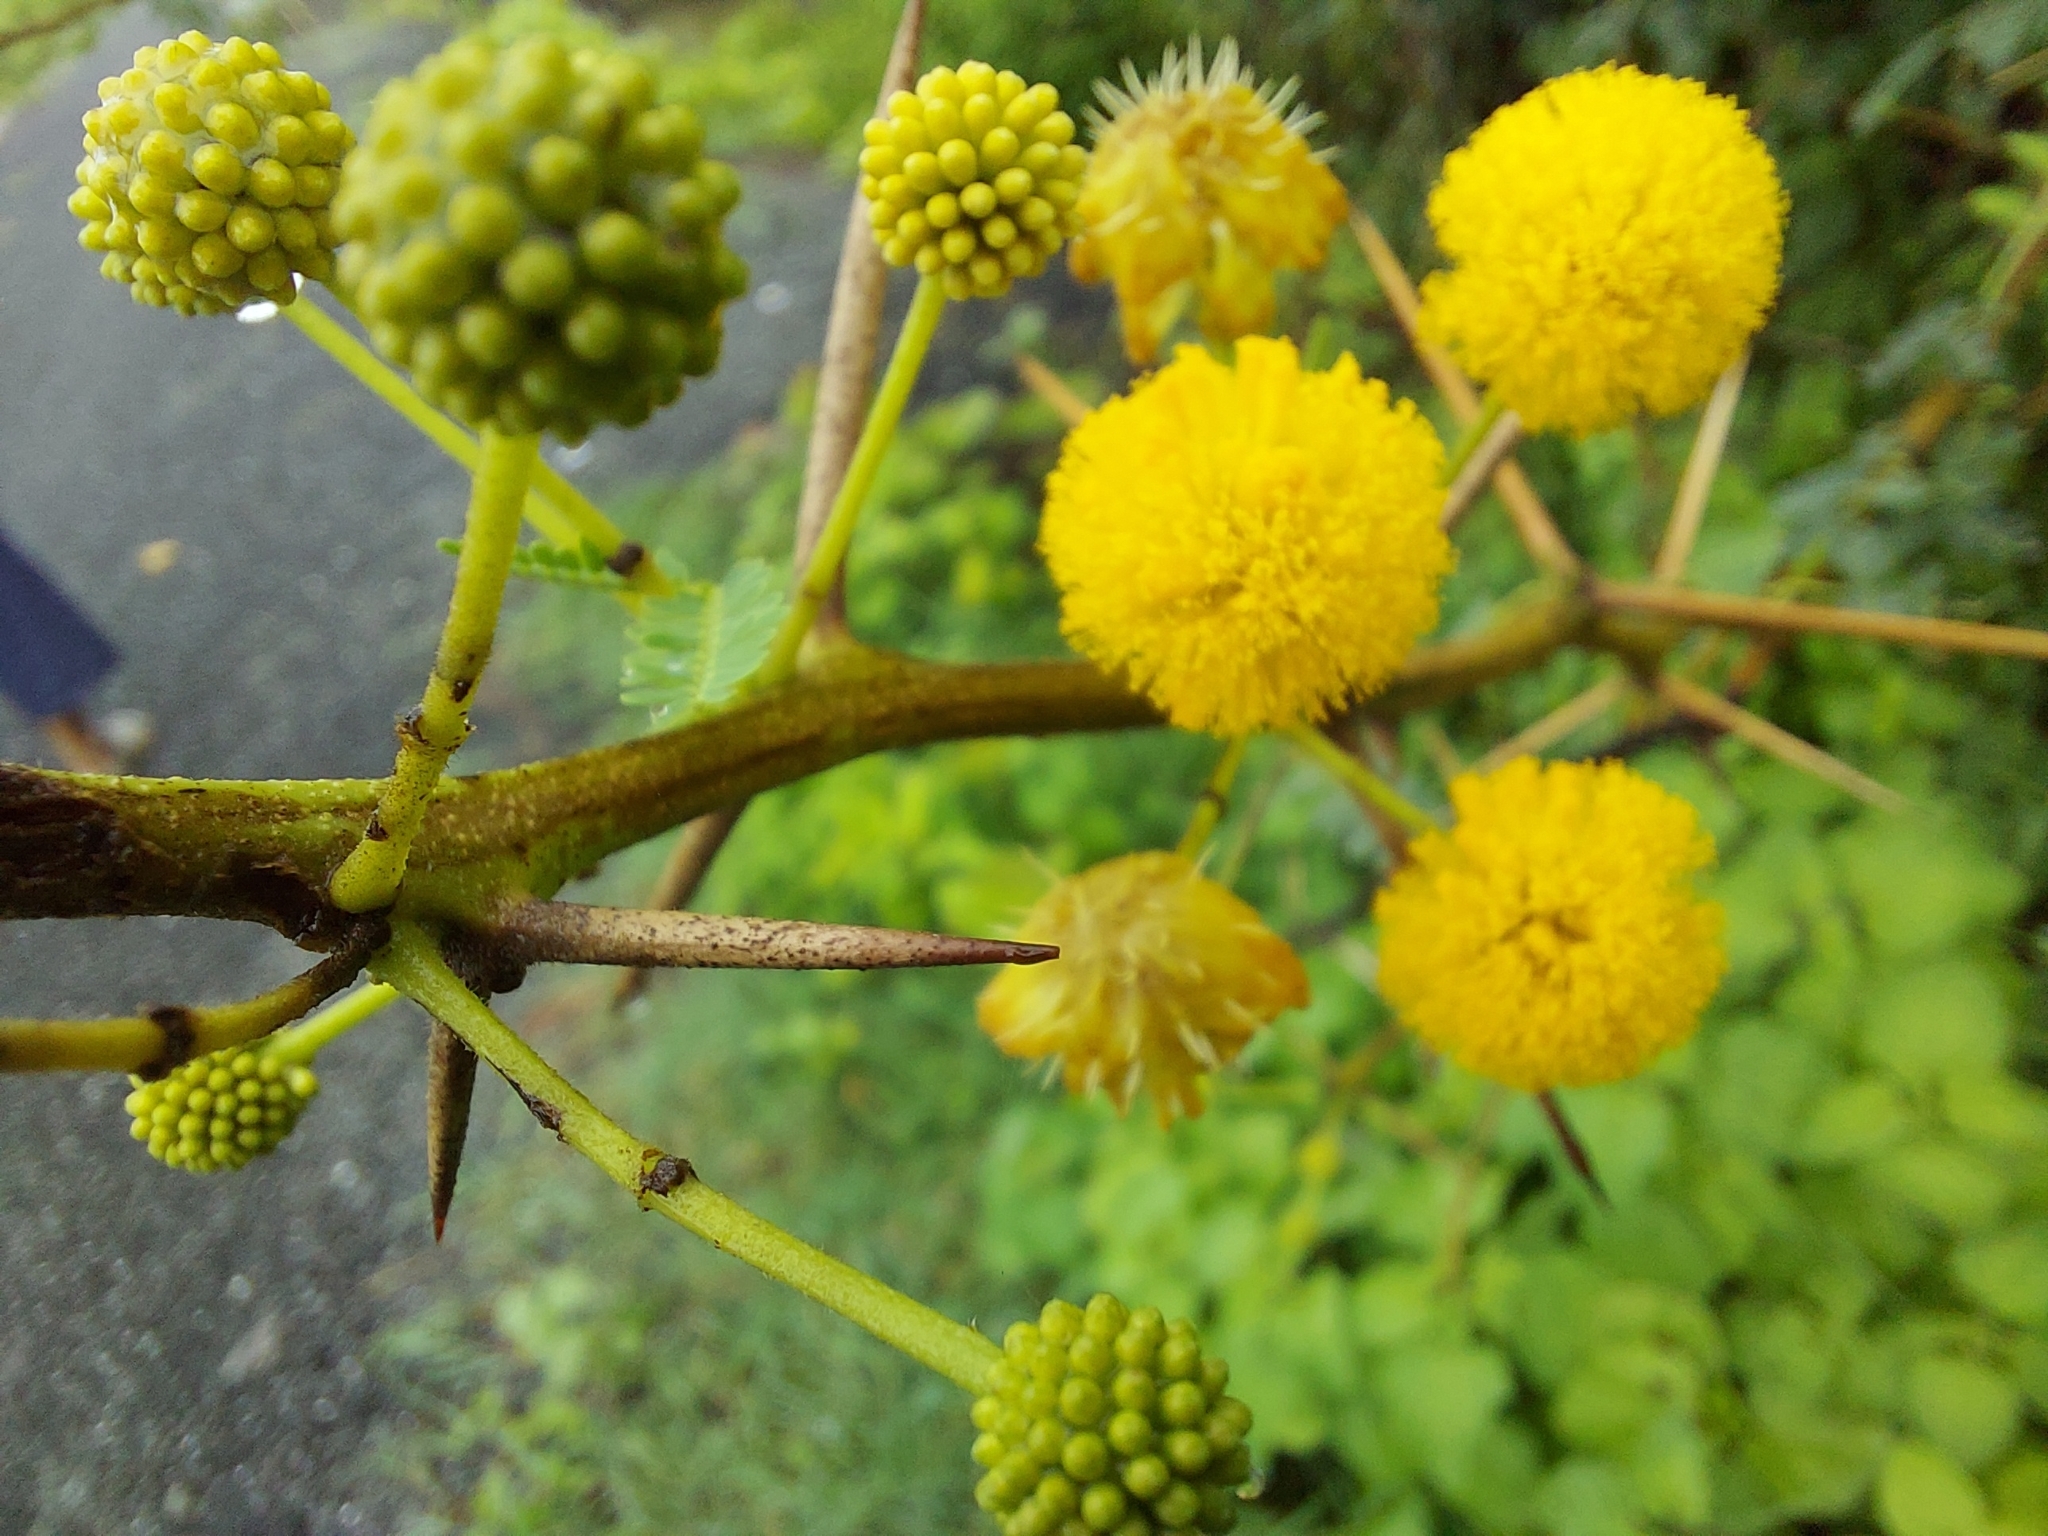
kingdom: Plantae
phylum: Tracheophyta
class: Magnoliopsida
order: Fabales
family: Fabaceae
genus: Vachellia
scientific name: Vachellia nilotica
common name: Arabic gumtree
